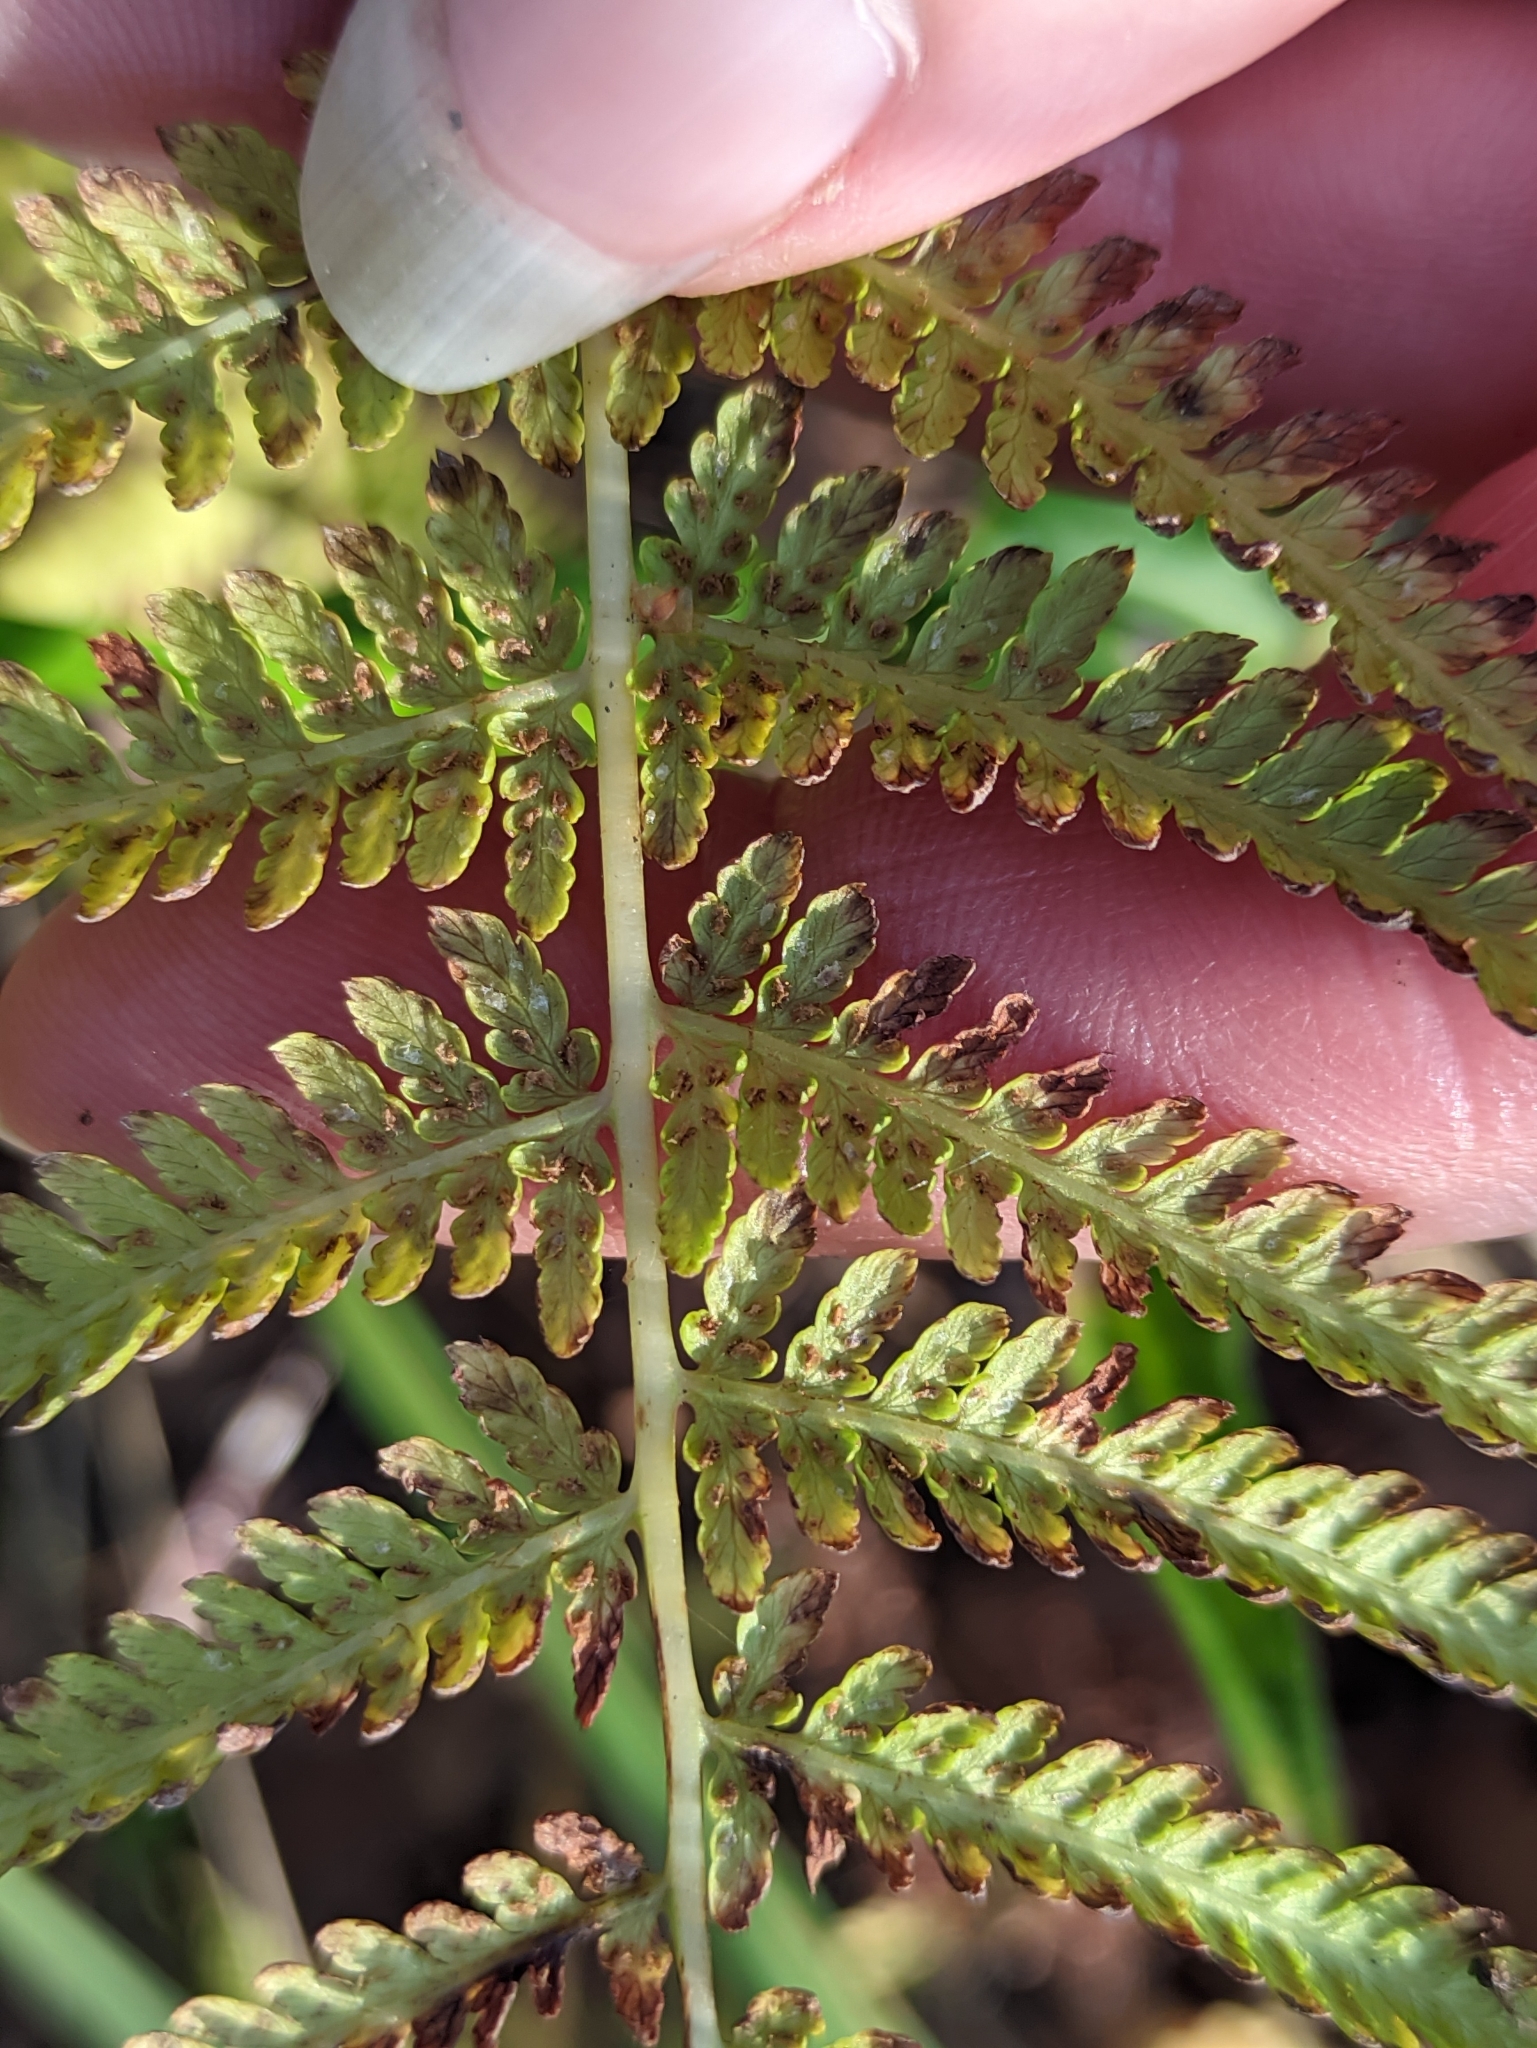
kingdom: Plantae
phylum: Tracheophyta
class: Polypodiopsida
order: Polypodiales
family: Athyriaceae
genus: Athyrium
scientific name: Athyrium filix-femina
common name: Lady fern
